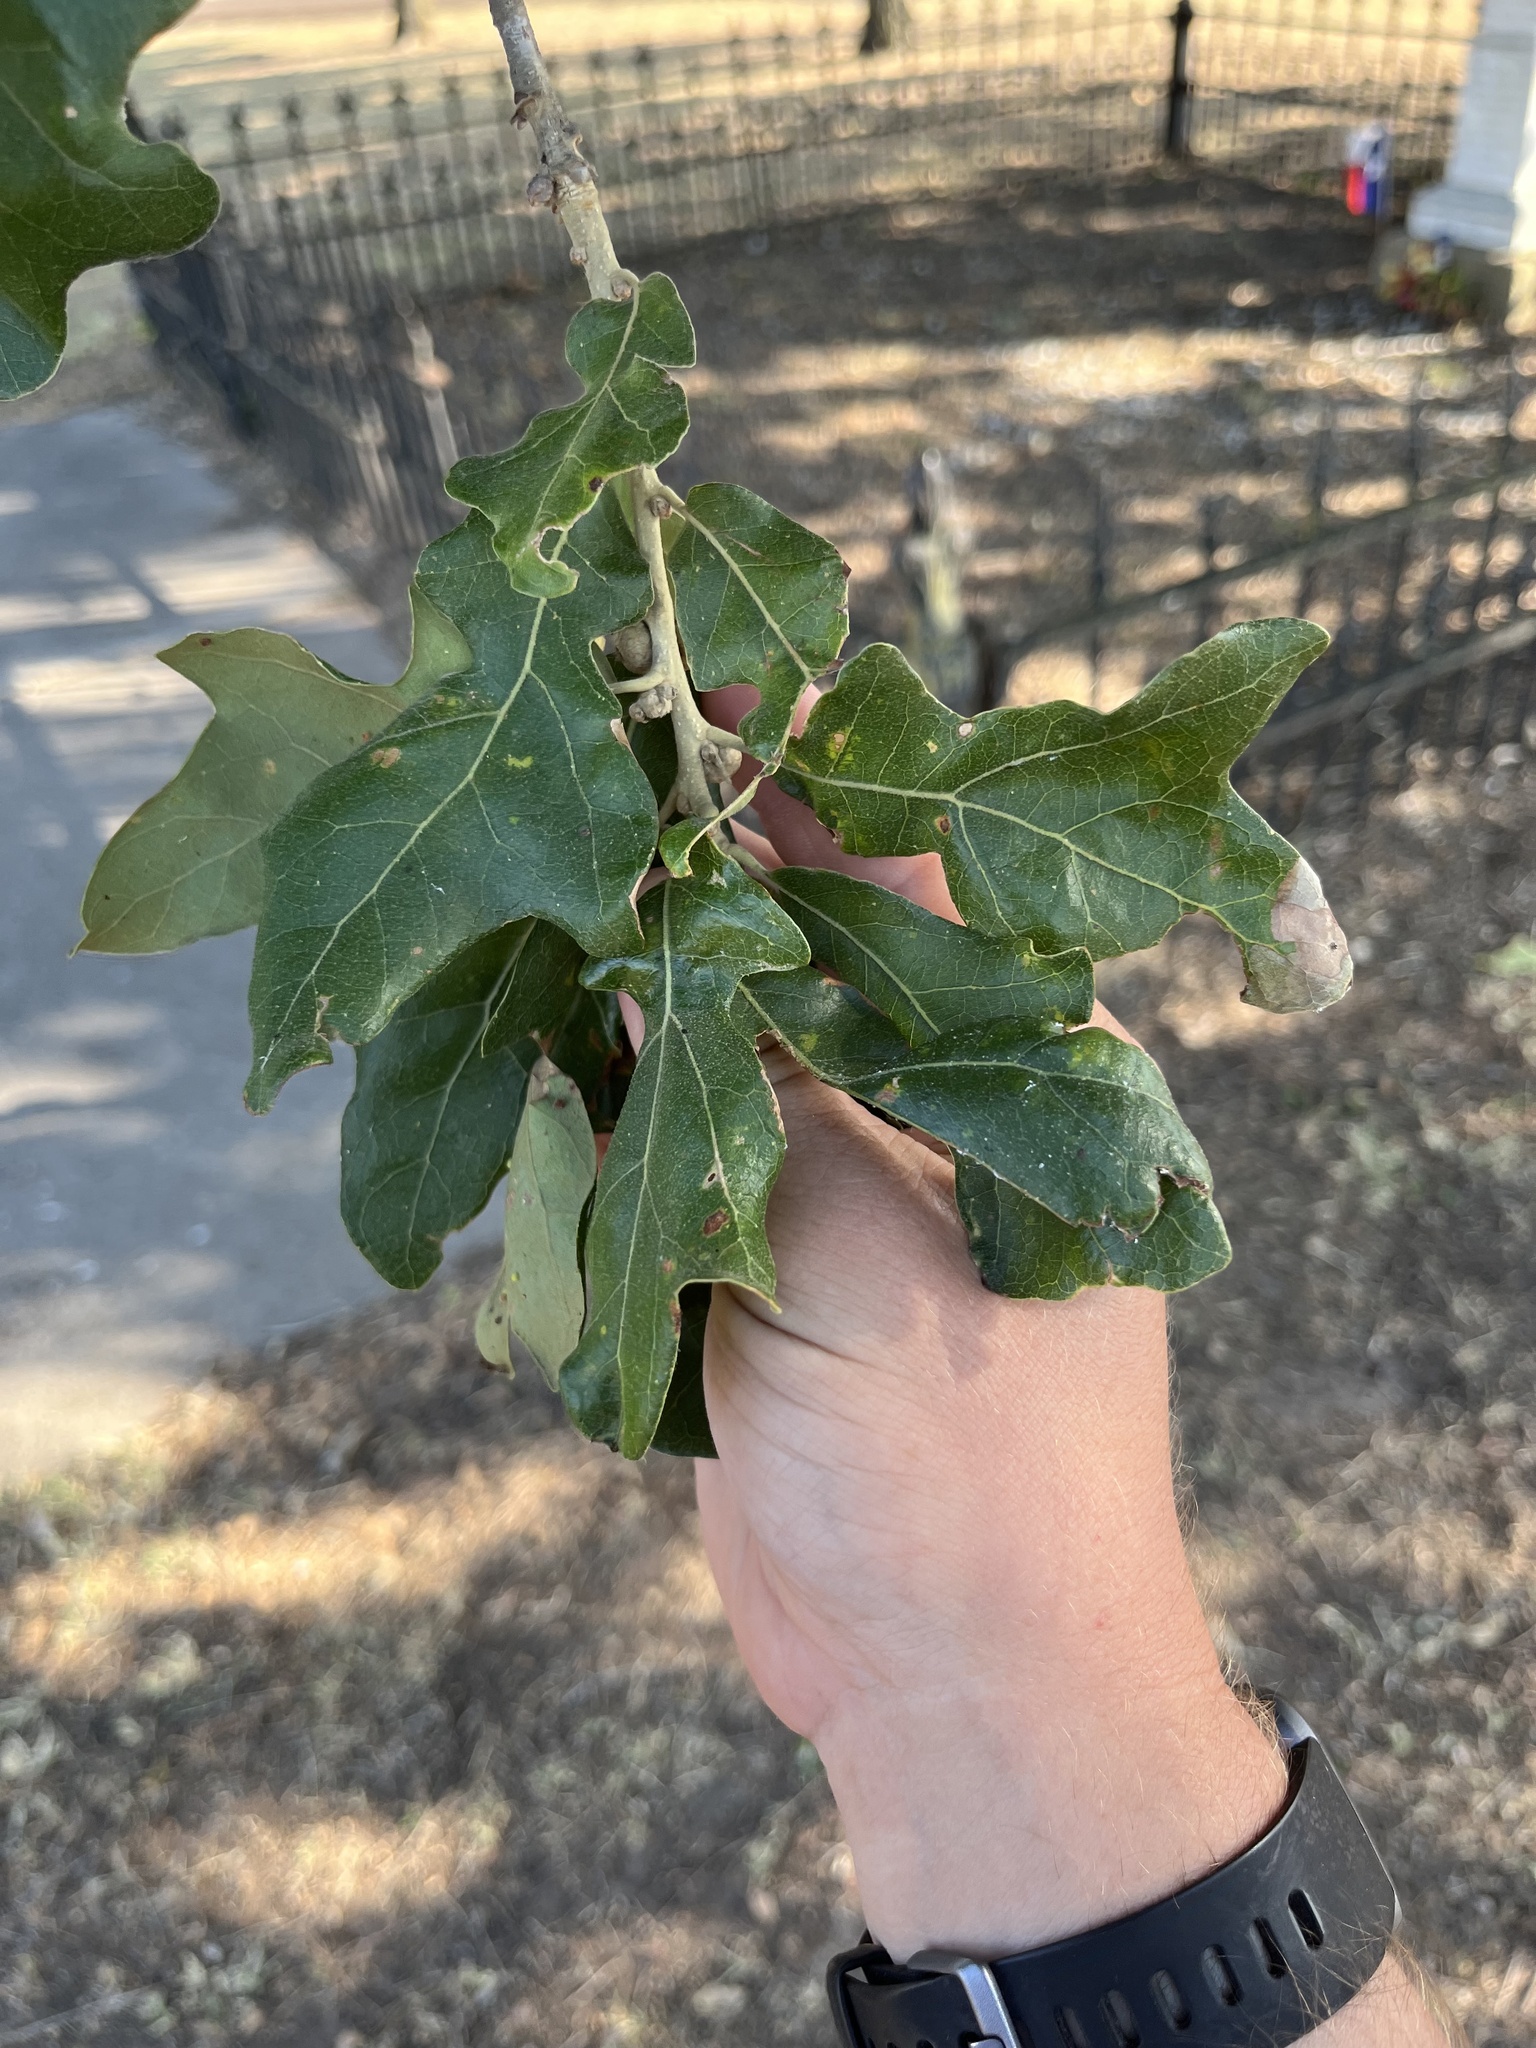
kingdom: Plantae
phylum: Tracheophyta
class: Magnoliopsida
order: Fagales
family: Fagaceae
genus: Quercus
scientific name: Quercus stellata
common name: Post oak
